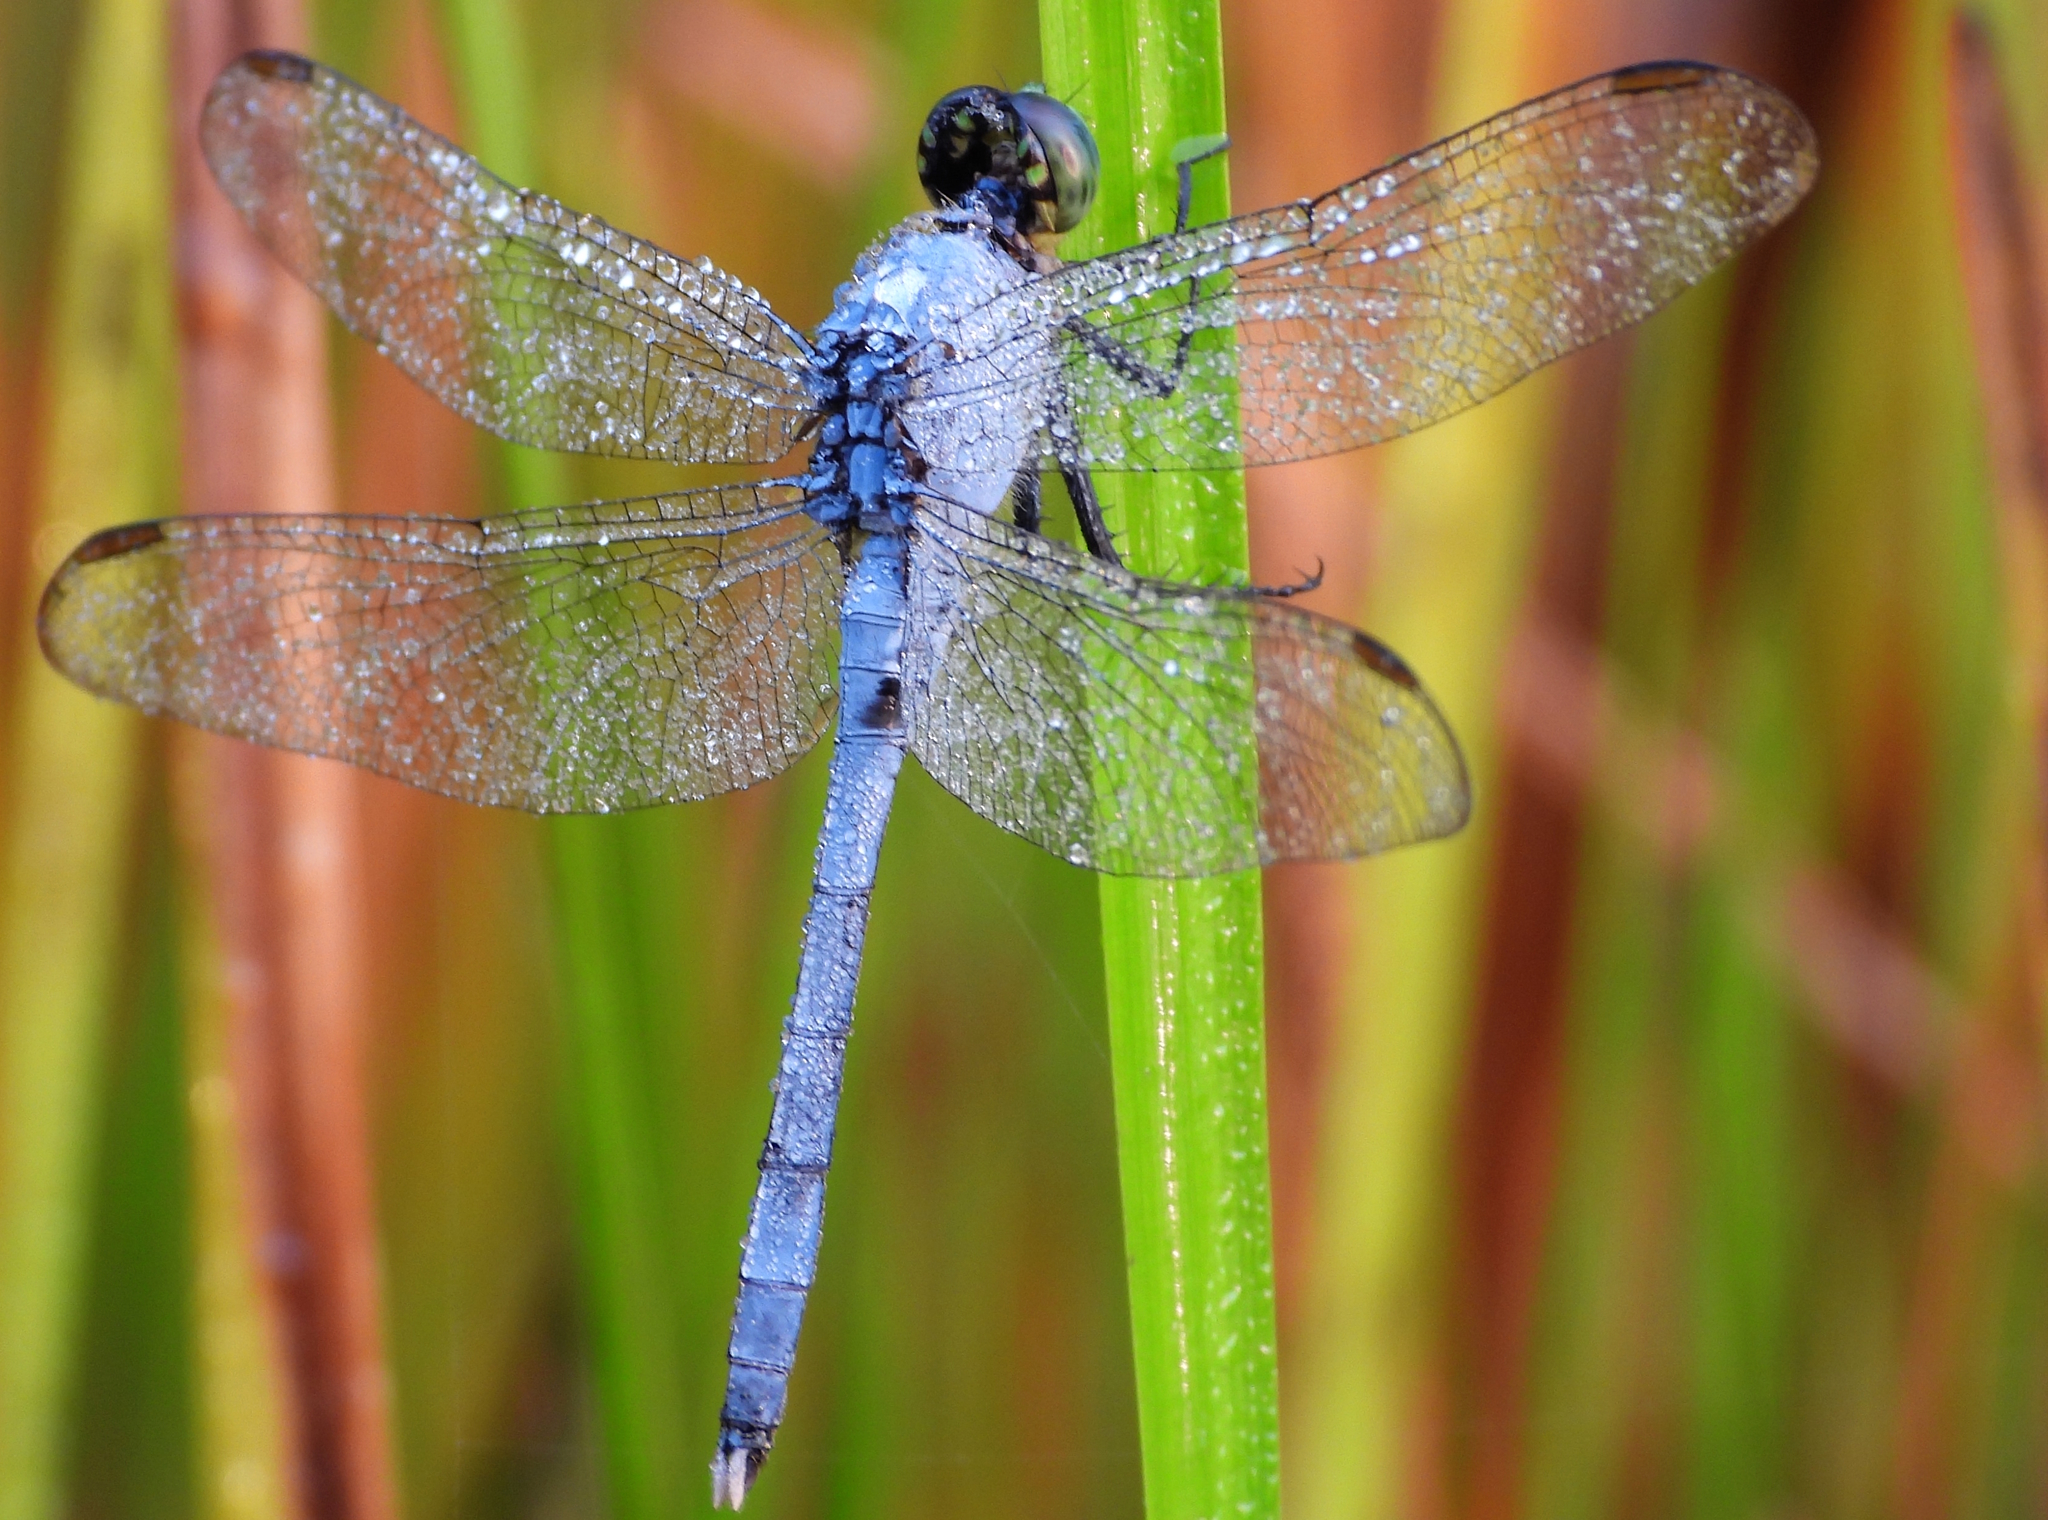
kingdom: Animalia
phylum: Arthropoda
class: Insecta
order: Odonata
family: Libellulidae
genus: Erythemis
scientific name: Erythemis simplicicollis
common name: Eastern pondhawk
